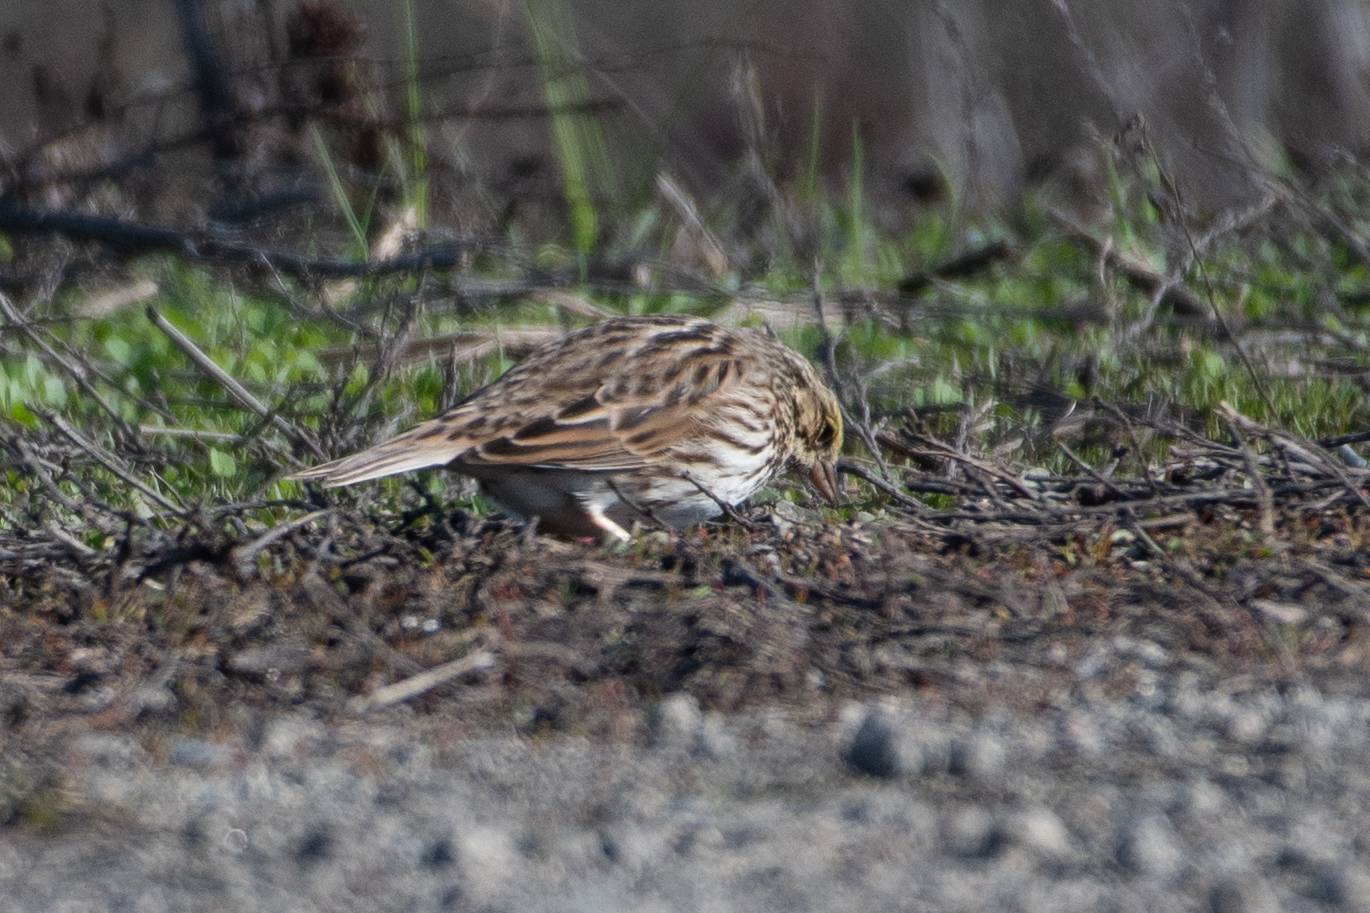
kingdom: Animalia
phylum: Chordata
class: Aves
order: Passeriformes
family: Passerellidae
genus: Passerculus
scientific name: Passerculus sandwichensis
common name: Savannah sparrow
